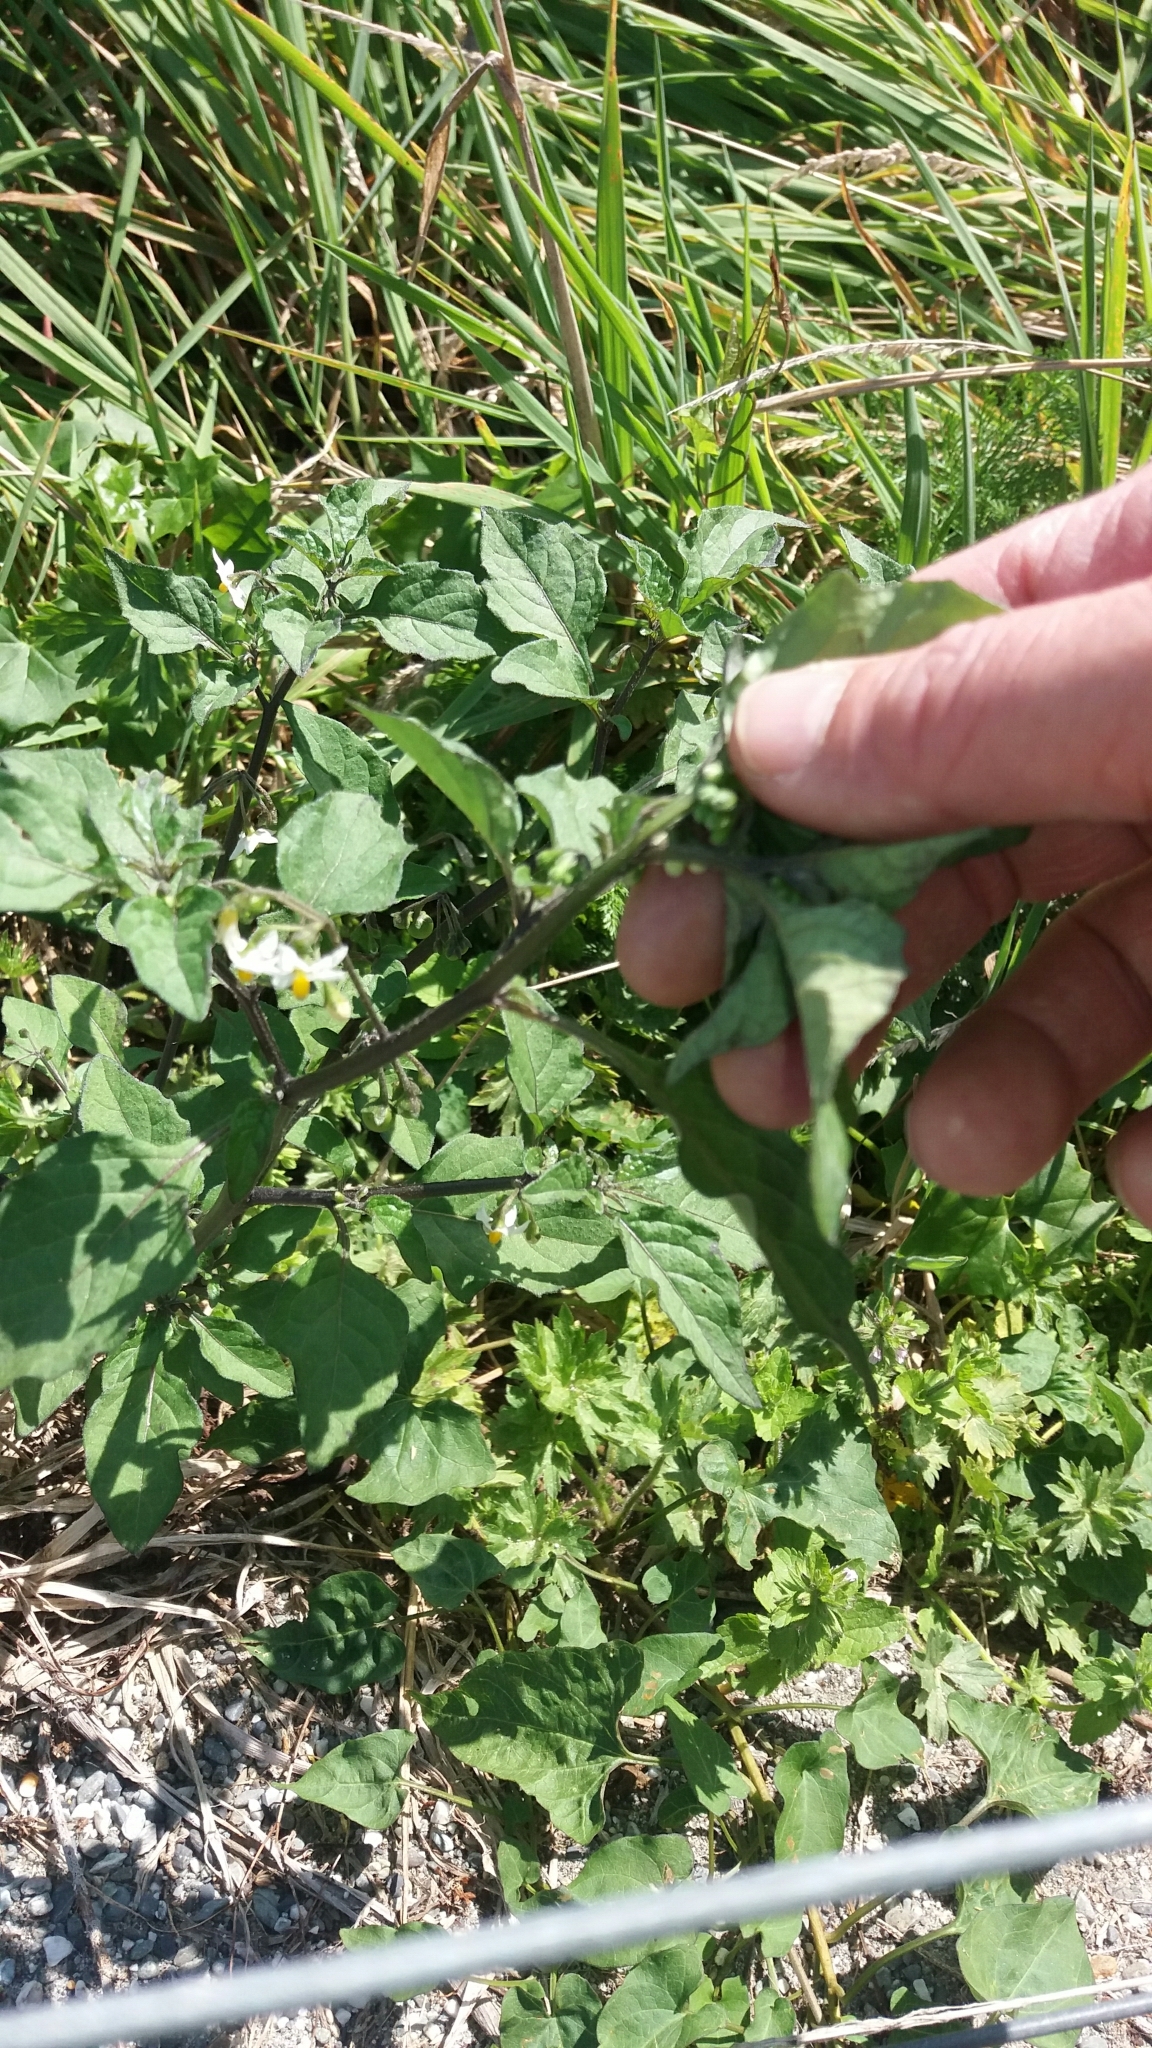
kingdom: Plantae
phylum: Tracheophyta
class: Magnoliopsida
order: Solanales
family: Solanaceae
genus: Solanum
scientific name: Solanum nigrum
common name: Black nightshade
